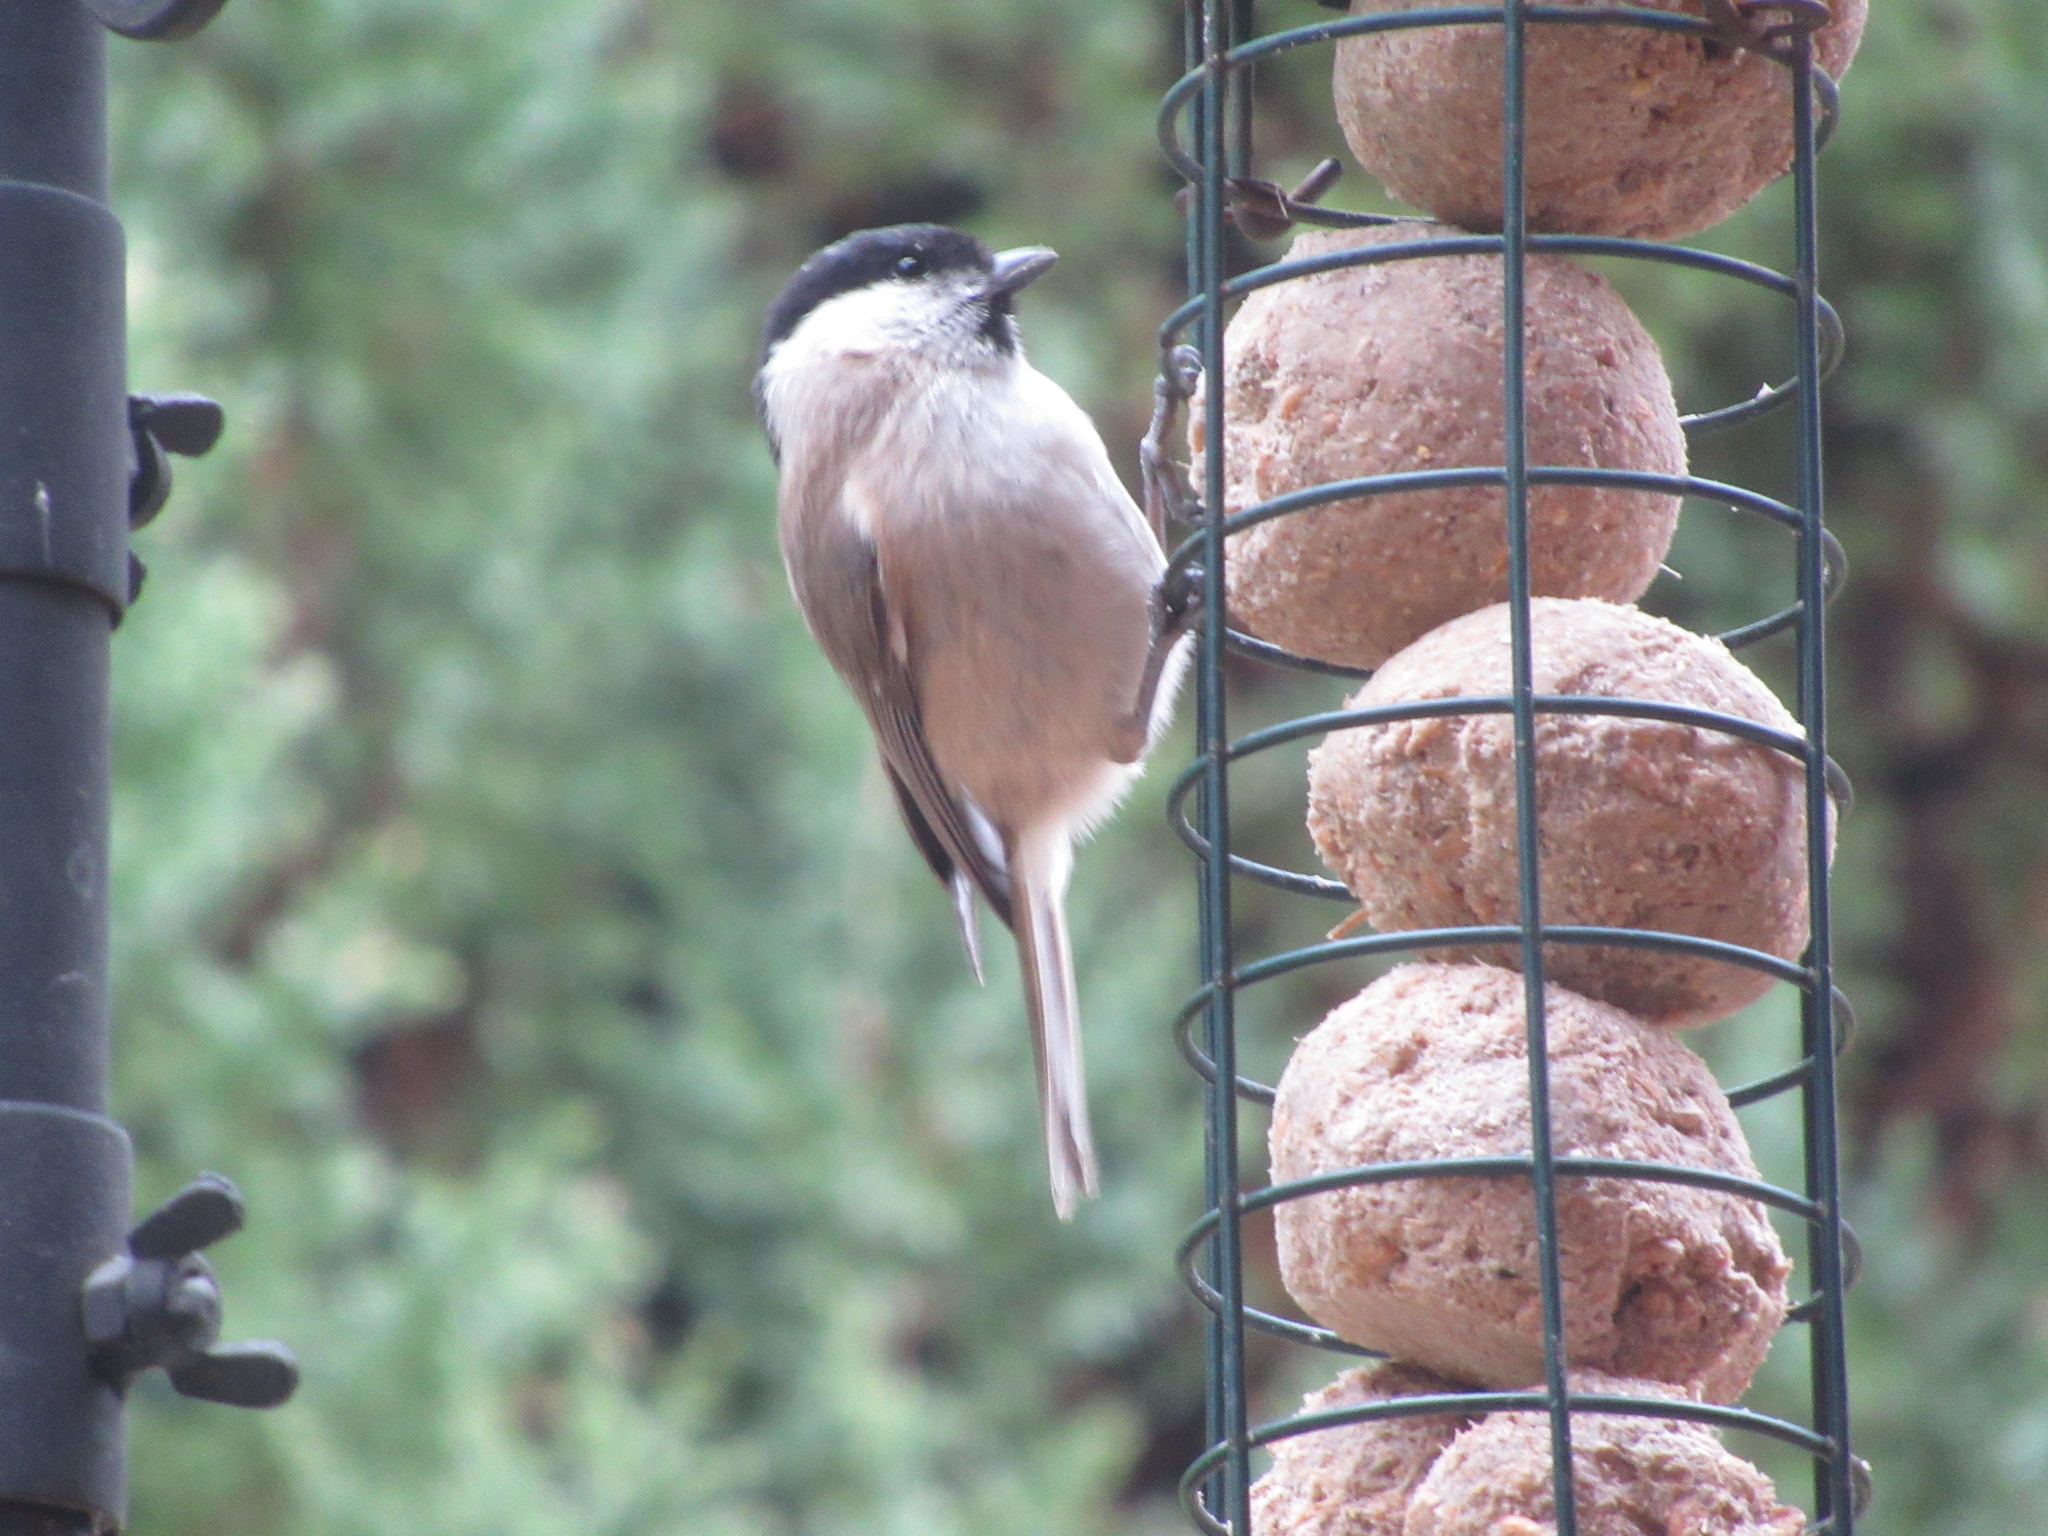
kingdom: Animalia
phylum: Chordata
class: Aves
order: Passeriformes
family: Paridae
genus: Poecile
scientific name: Poecile palustris
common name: Marsh tit
